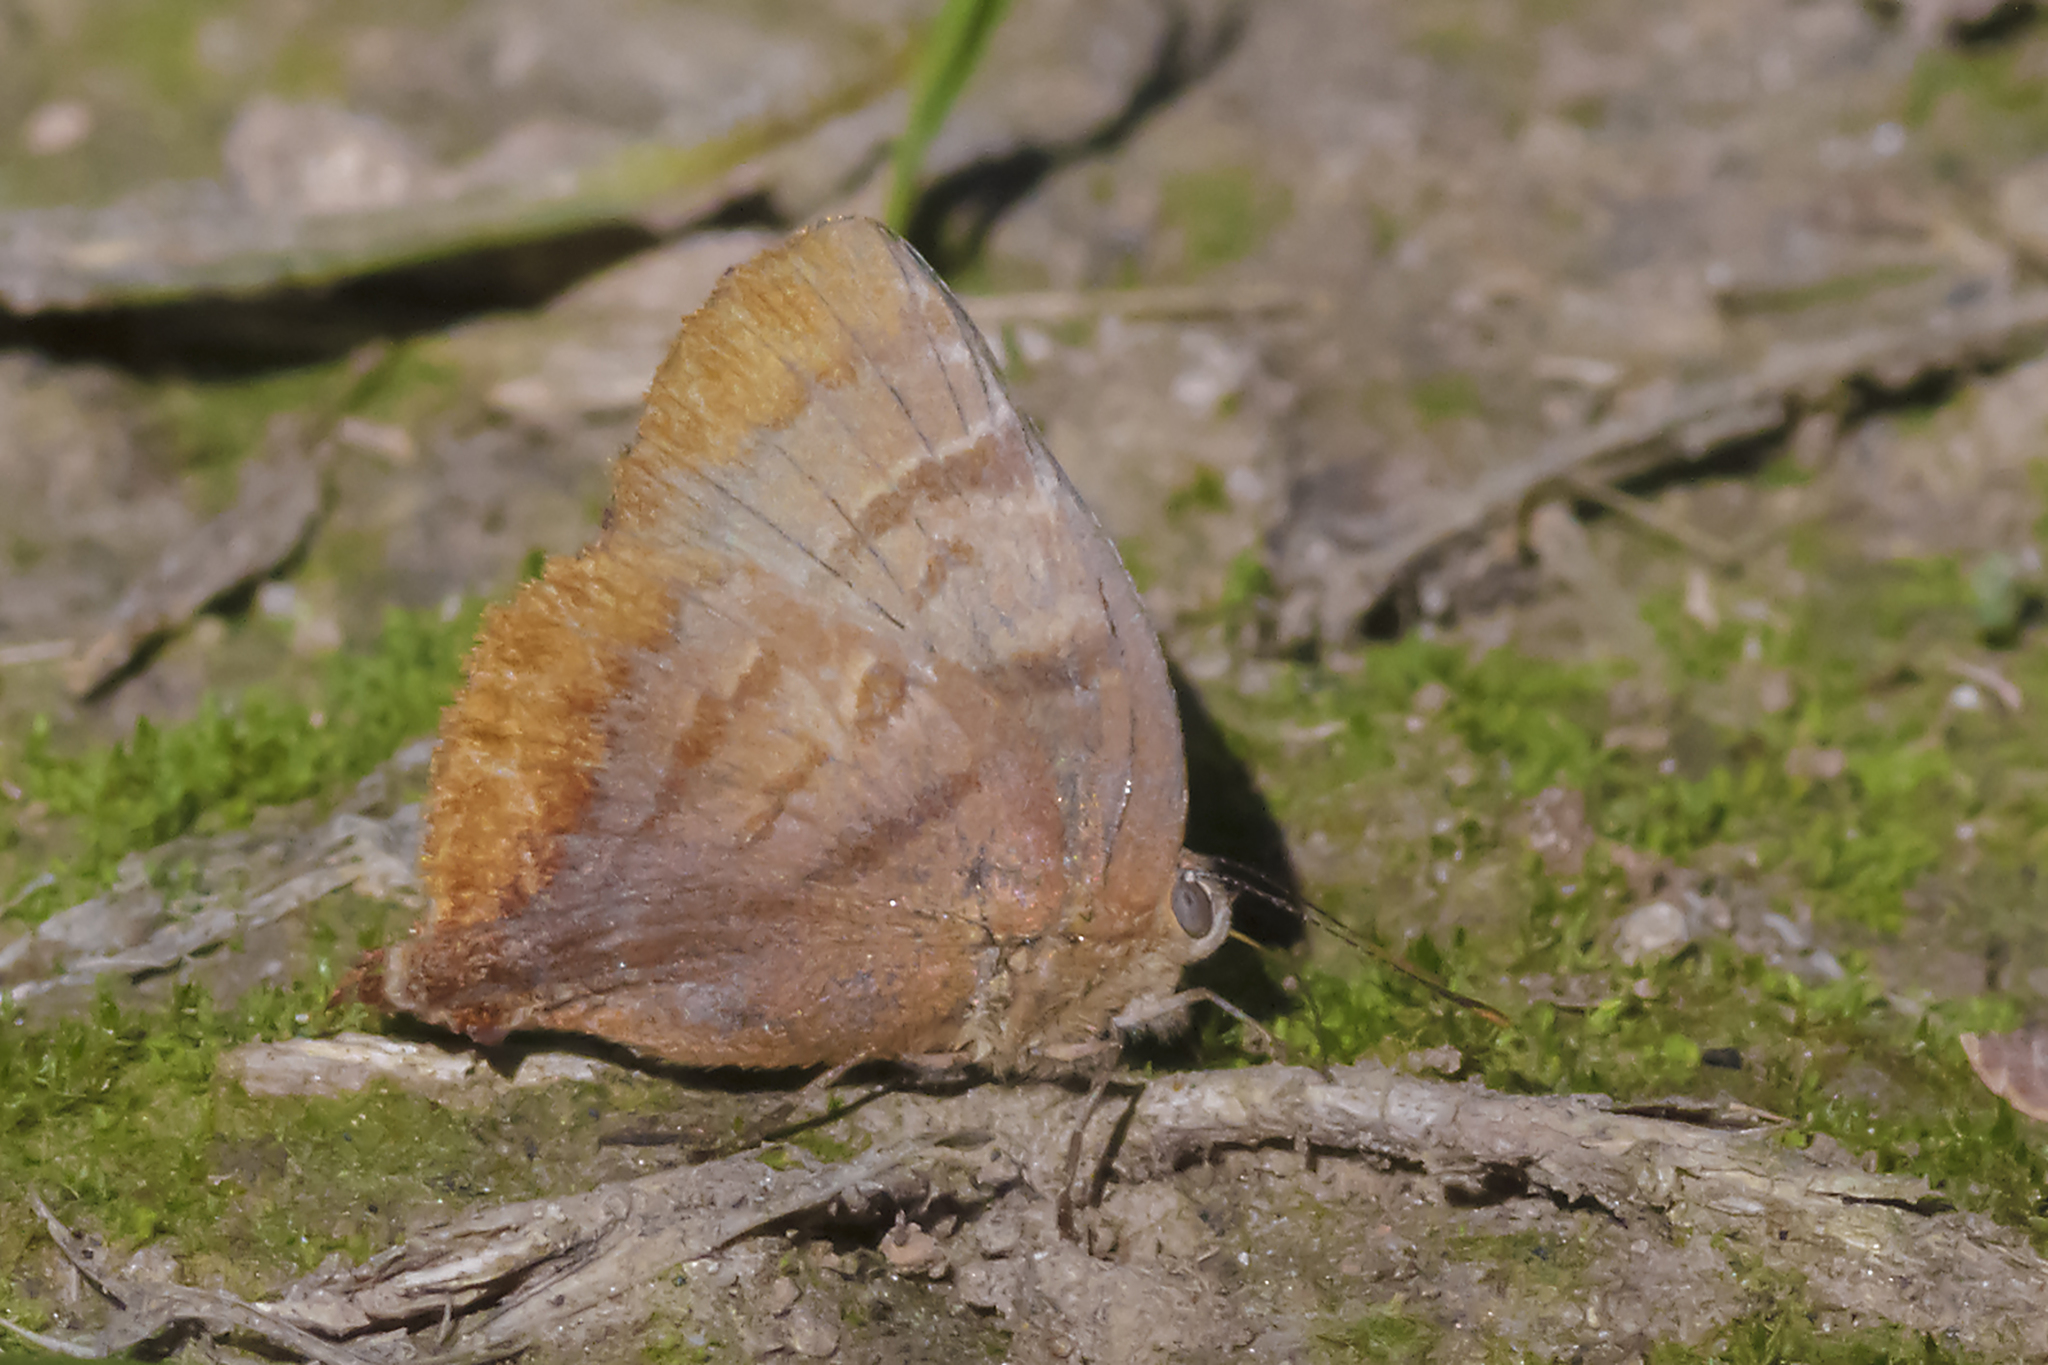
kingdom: Animalia
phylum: Arthropoda
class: Insecta
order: Lepidoptera
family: Lycaenidae
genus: Thecla
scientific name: Thecla marius
